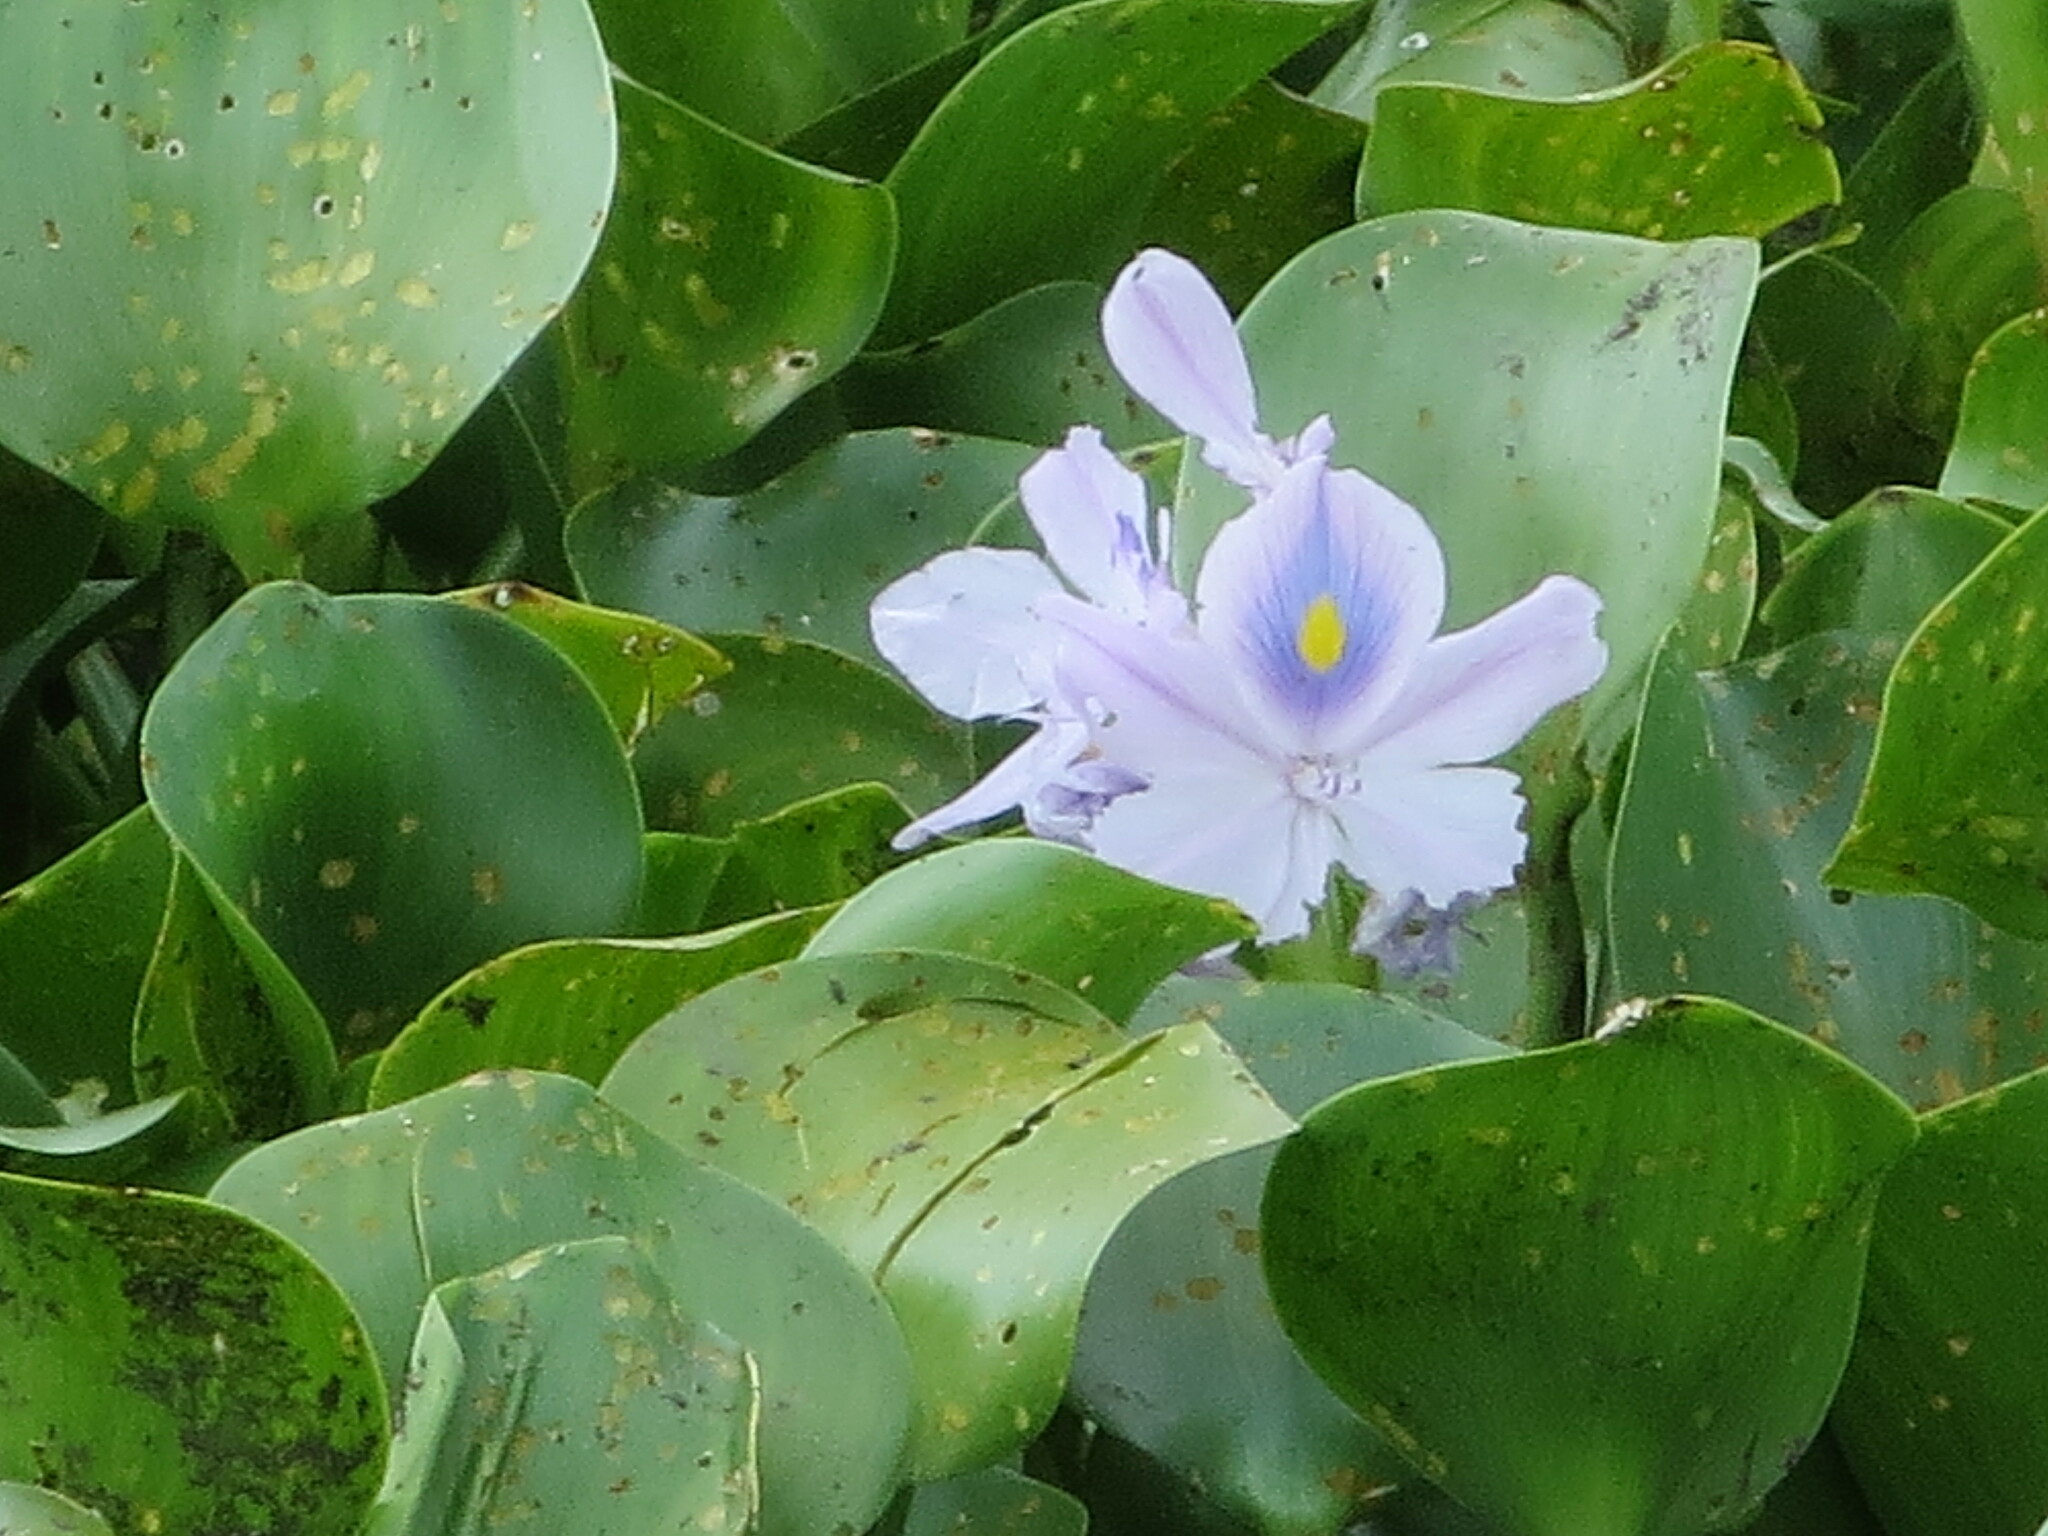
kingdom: Plantae
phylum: Tracheophyta
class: Liliopsida
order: Commelinales
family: Pontederiaceae
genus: Pontederia
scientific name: Pontederia crassipes
